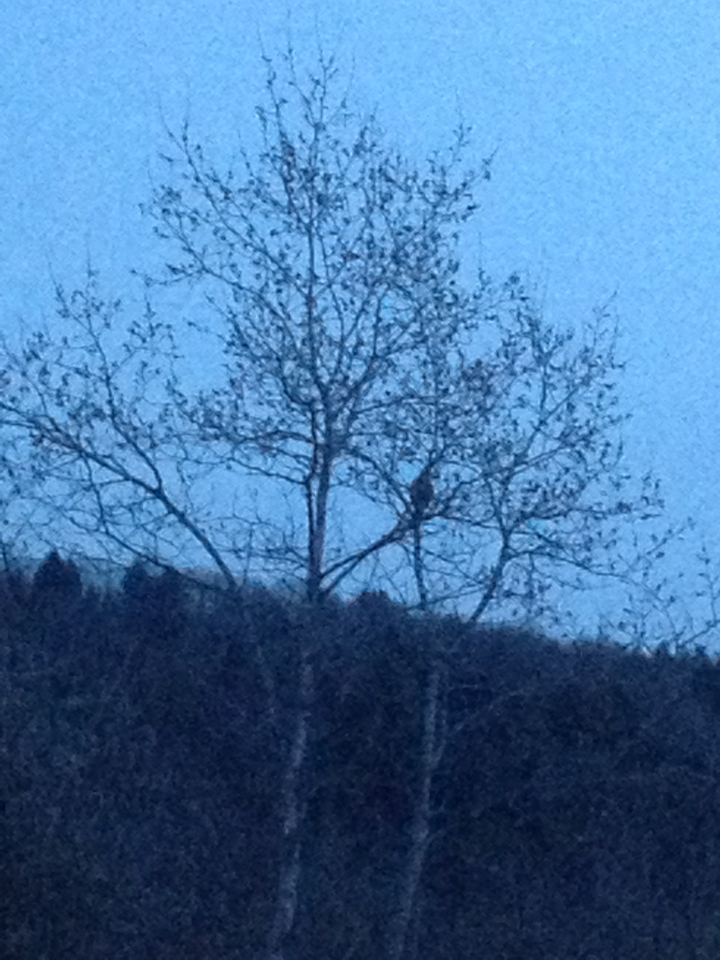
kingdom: Animalia
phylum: Chordata
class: Aves
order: Galliformes
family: Phasianidae
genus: Bonasa
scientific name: Bonasa umbellus
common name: Ruffed grouse
